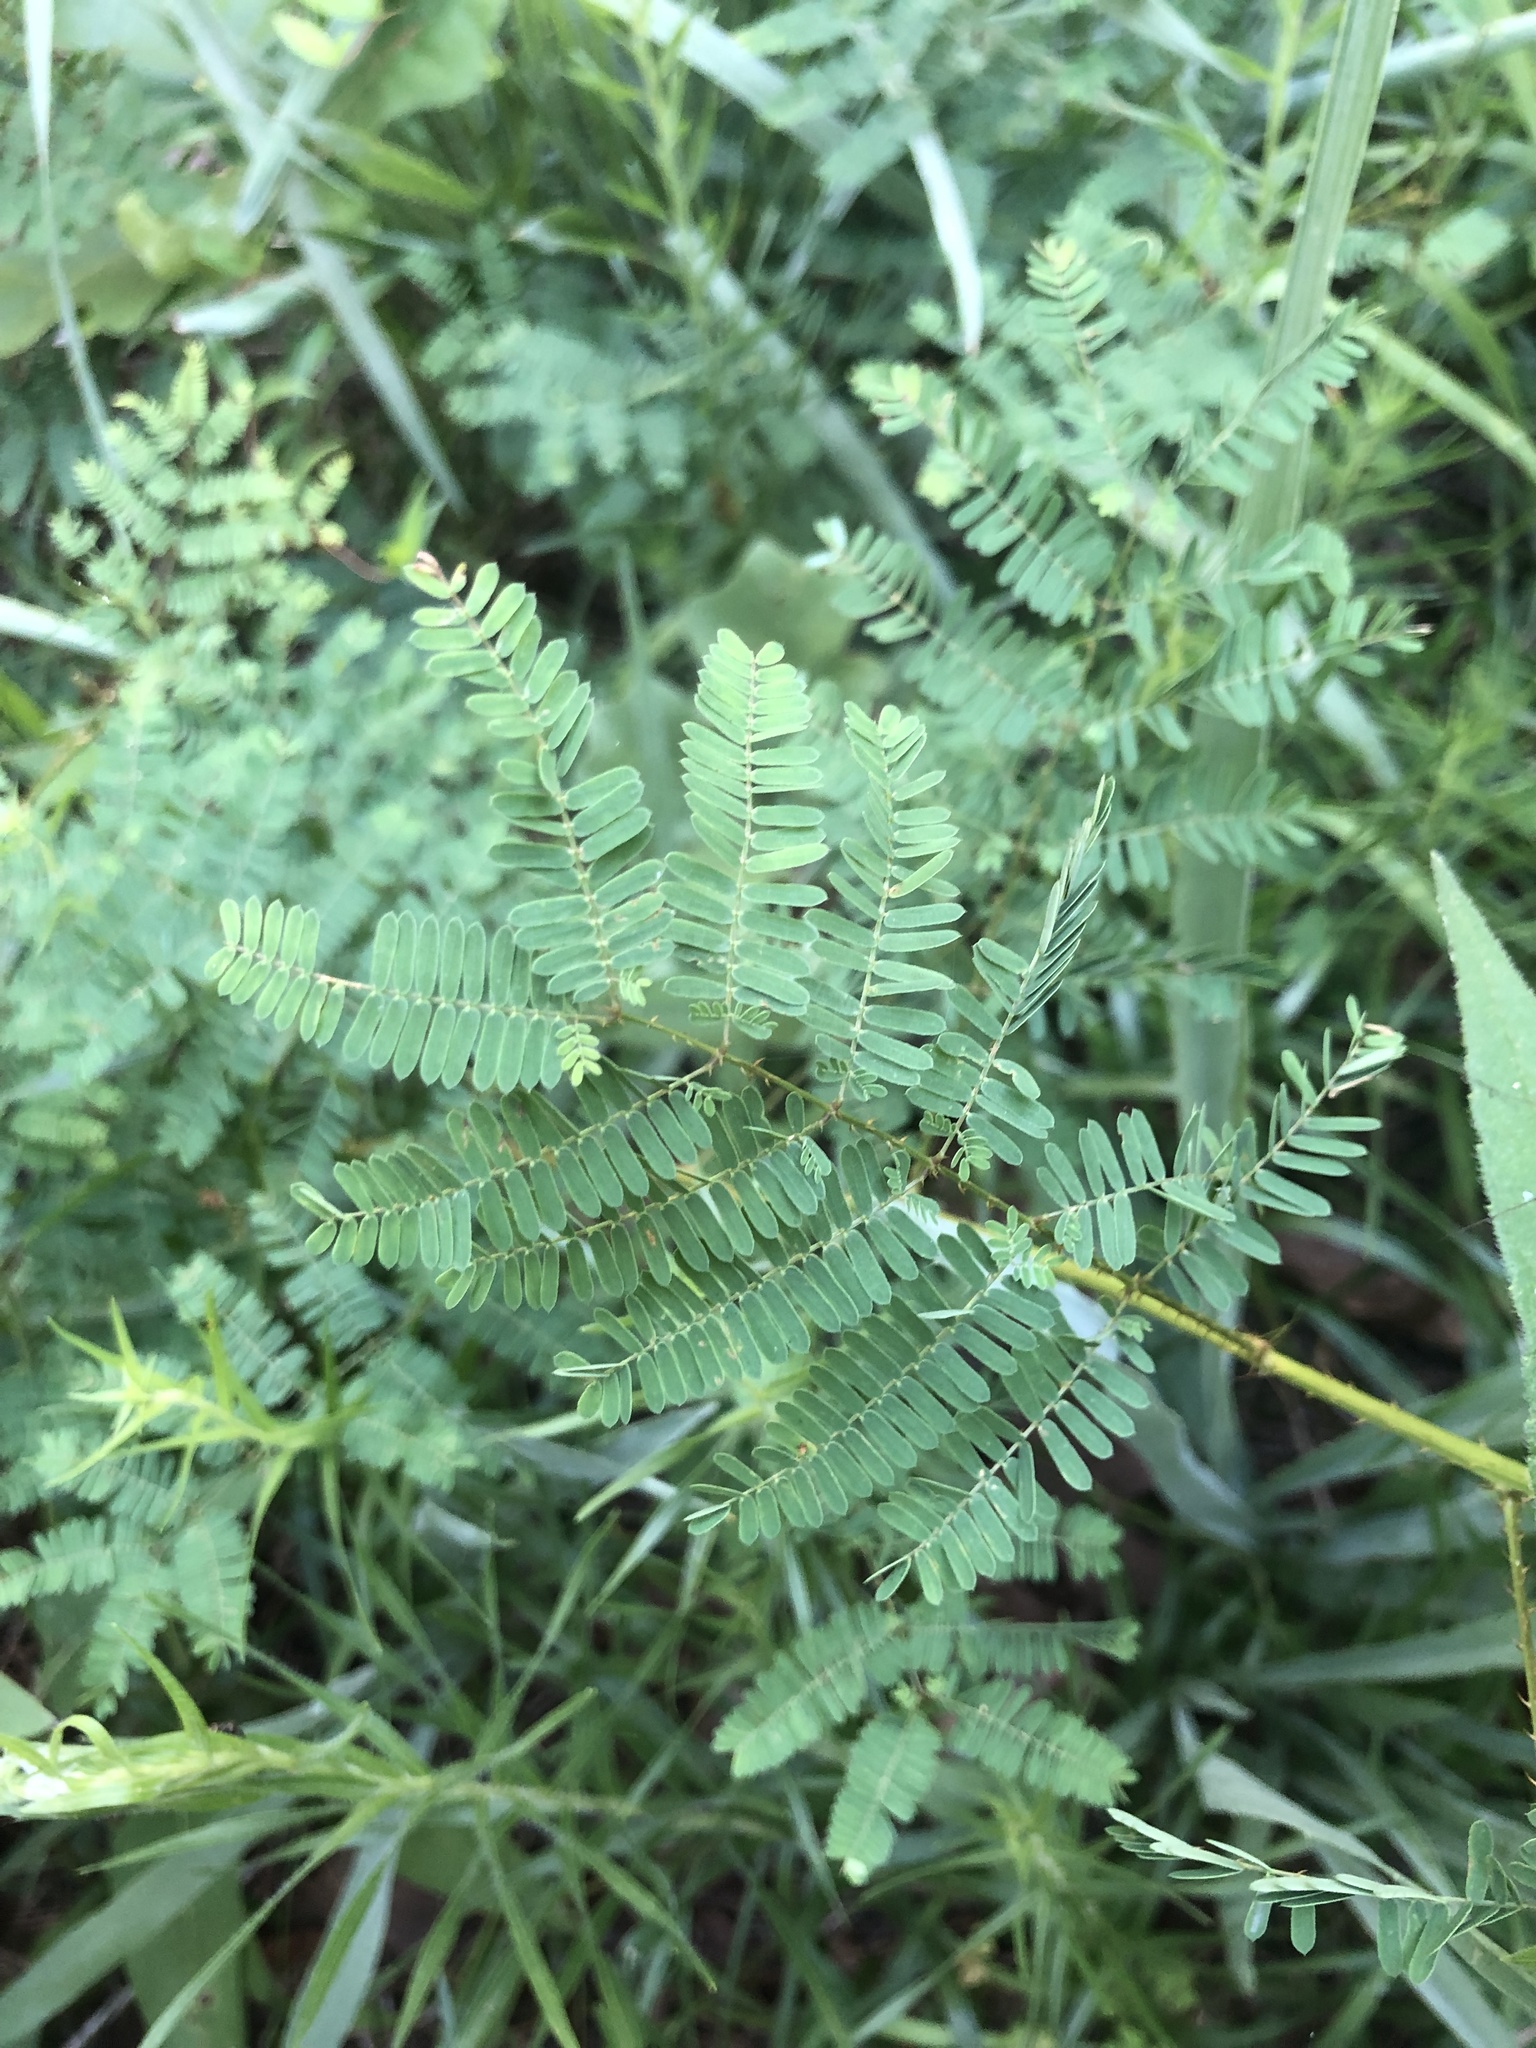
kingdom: Plantae
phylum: Tracheophyta
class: Magnoliopsida
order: Fabales
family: Fabaceae
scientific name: Fabaceae
